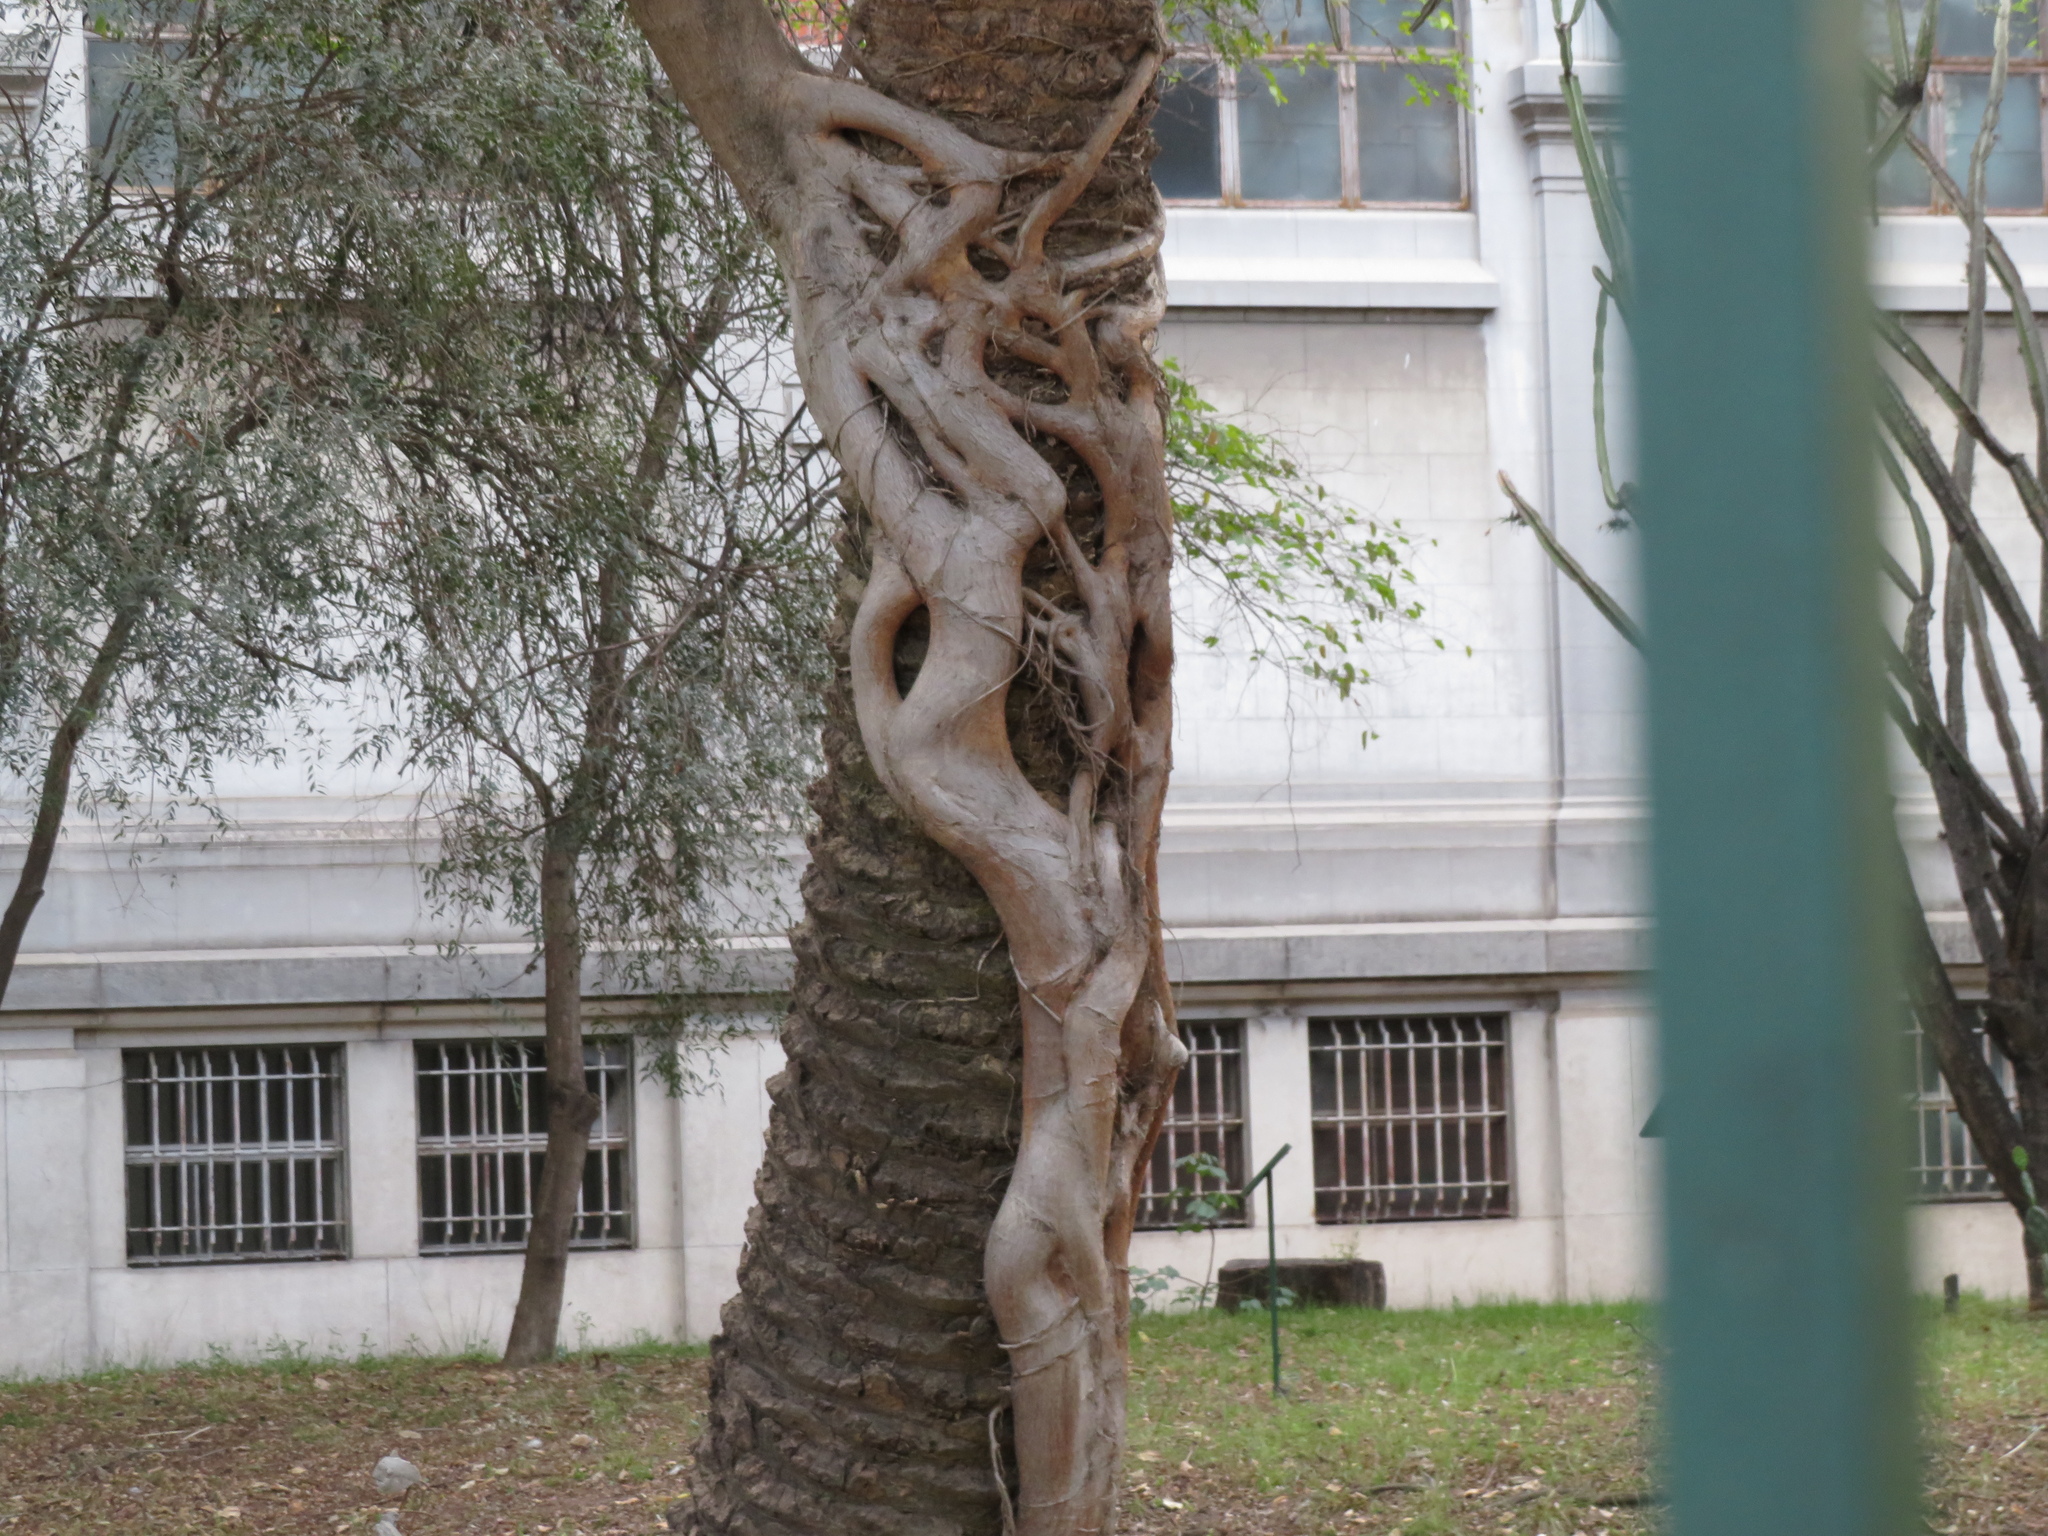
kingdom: Plantae
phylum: Tracheophyta
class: Magnoliopsida
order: Rosales
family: Moraceae
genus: Ficus
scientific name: Ficus luschnathiana
